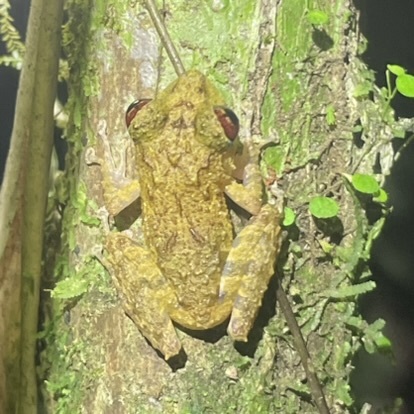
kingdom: Animalia
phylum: Chordata
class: Amphibia
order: Anura
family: Craugastoridae
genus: Pristimantis
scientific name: Pristimantis cruentus
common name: Chiriqui robber frog
